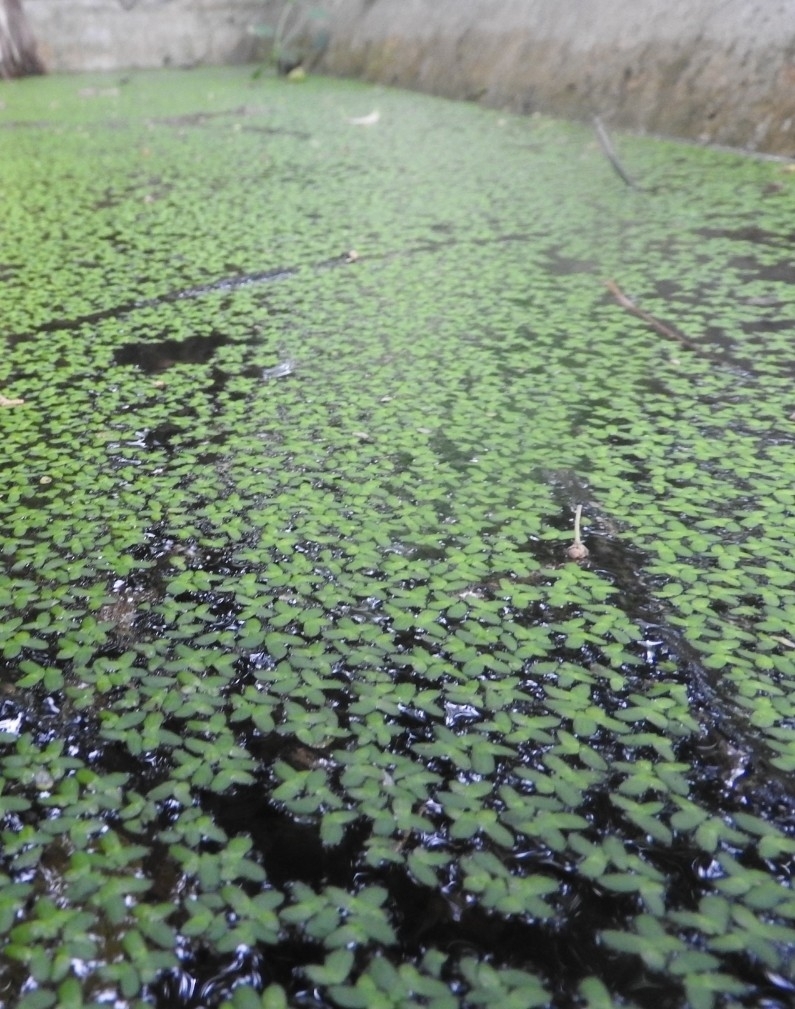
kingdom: Plantae
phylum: Tracheophyta
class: Liliopsida
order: Alismatales
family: Araceae
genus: Lemna
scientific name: Lemna minor
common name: Common duckweed
